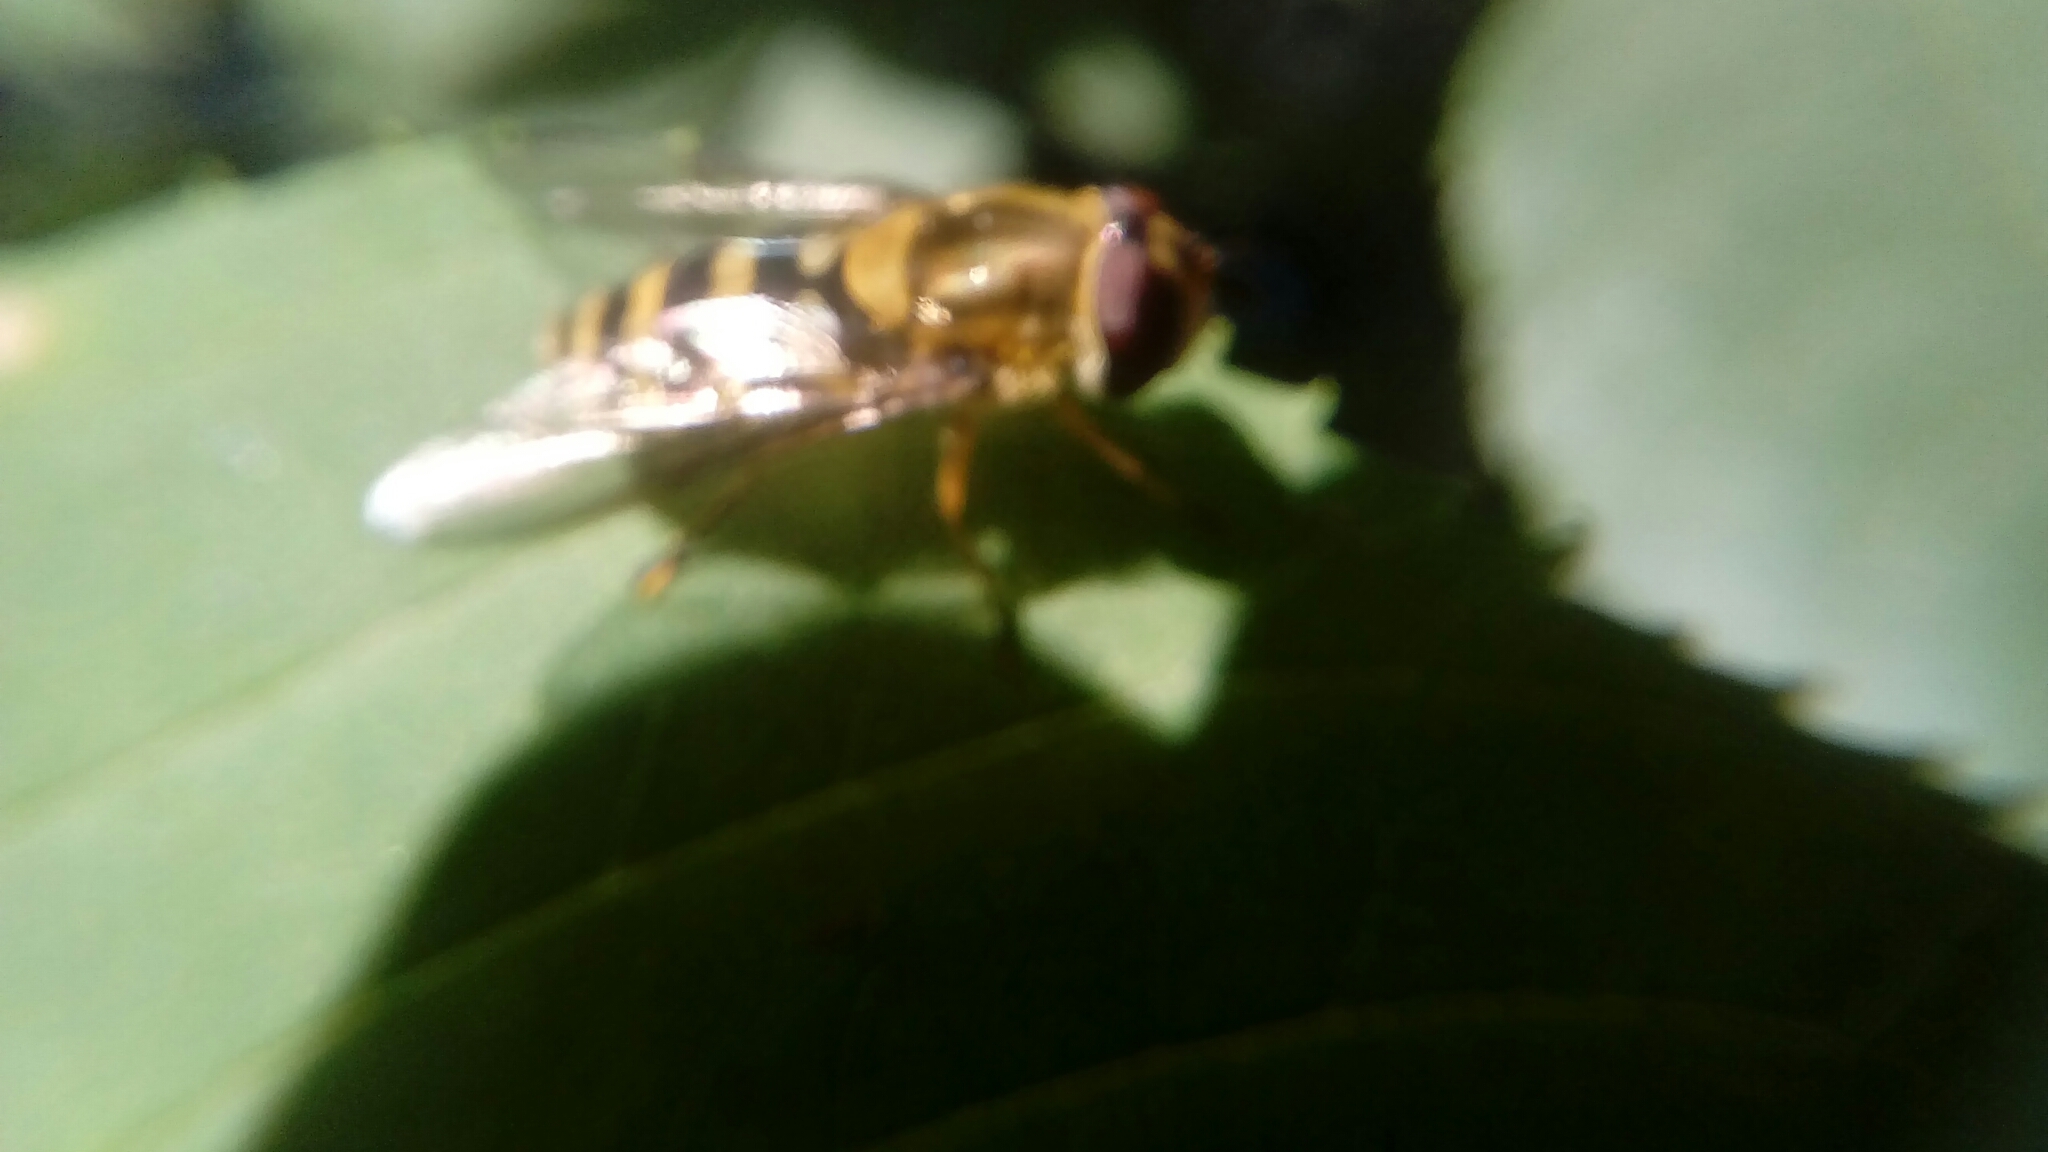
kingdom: Animalia
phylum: Arthropoda
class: Insecta
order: Diptera
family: Syrphidae
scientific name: Syrphidae
